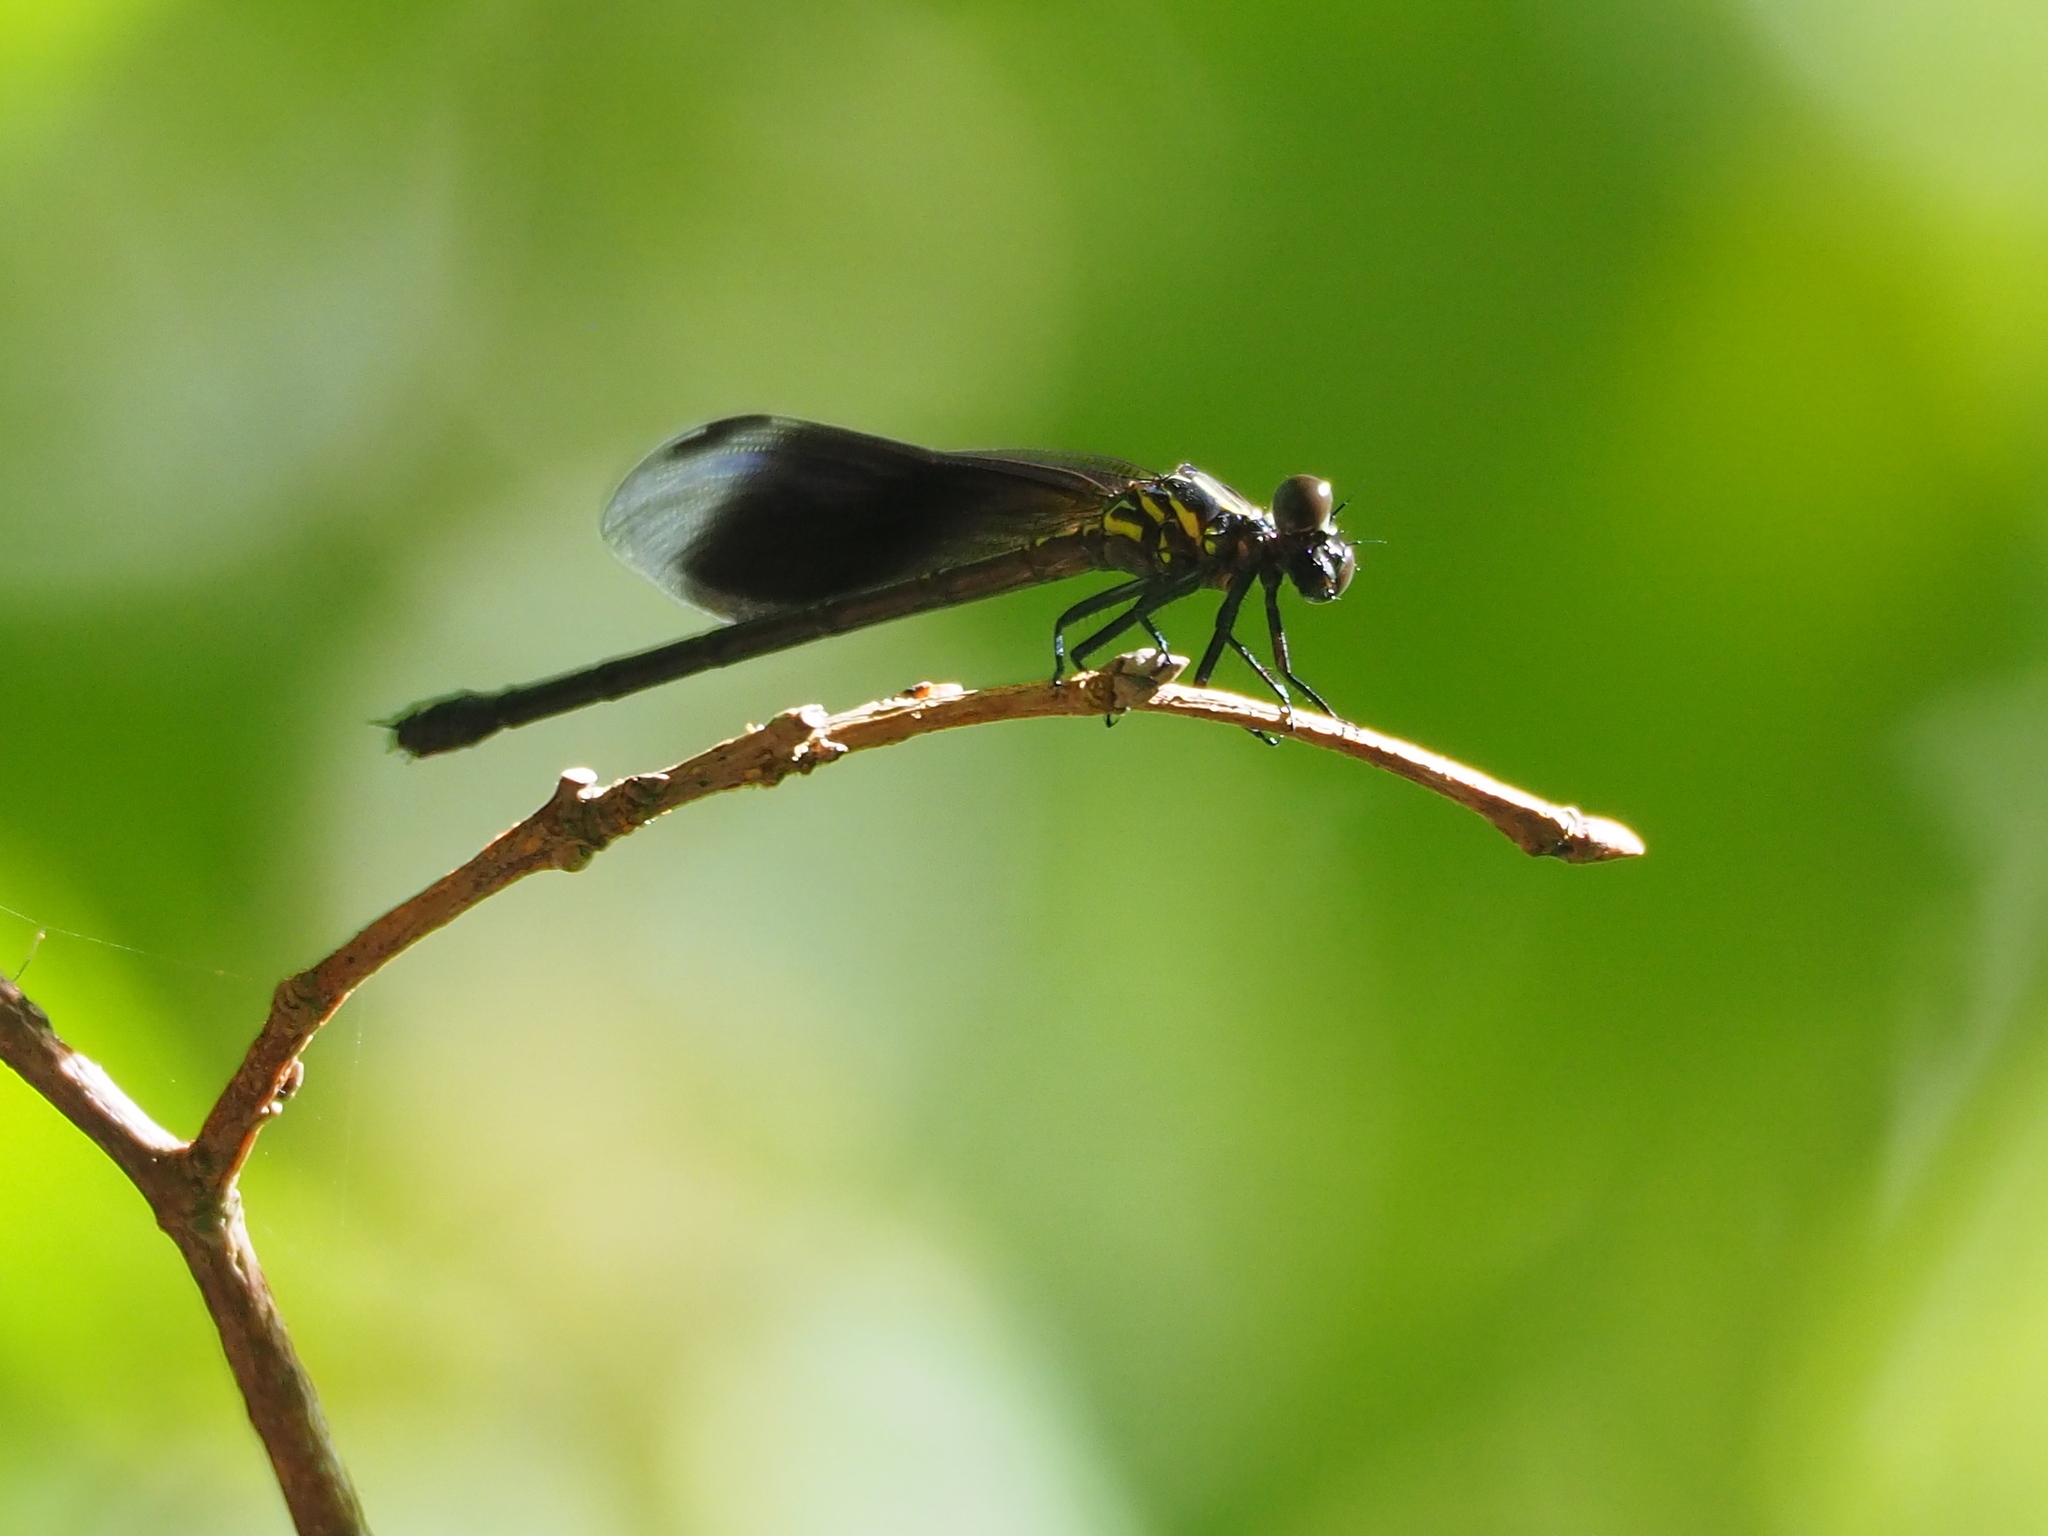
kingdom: Animalia
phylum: Arthropoda
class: Insecta
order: Odonata
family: Euphaeidae
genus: Euphaea
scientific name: Euphaea formosa
